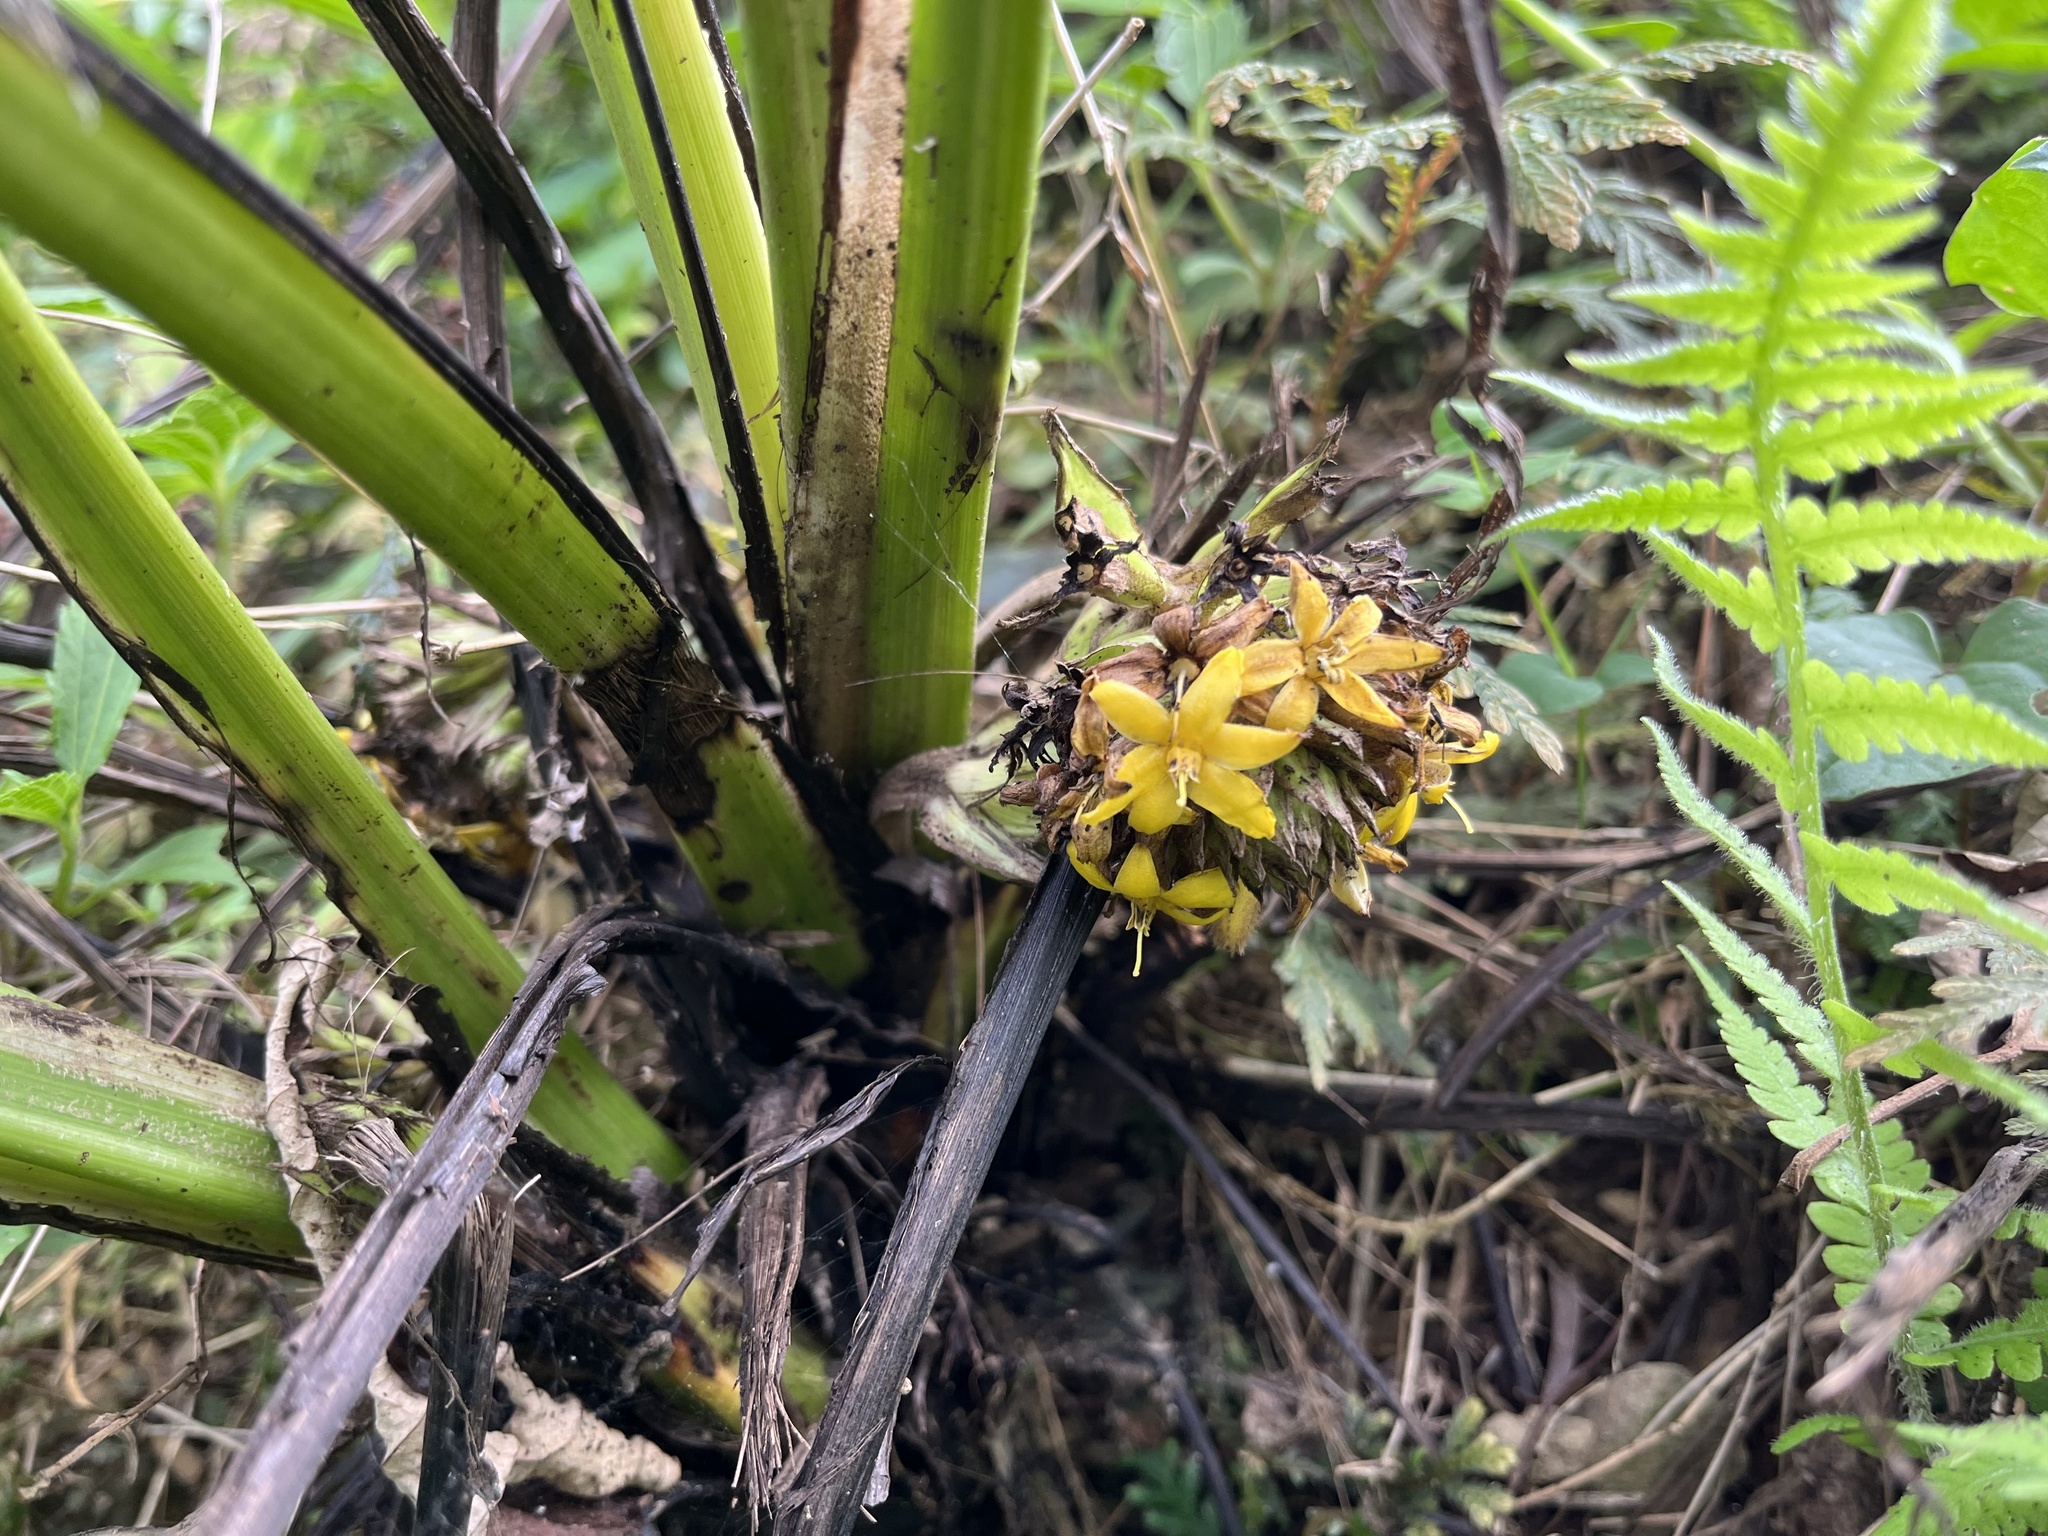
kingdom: Plantae
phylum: Tracheophyta
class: Liliopsida
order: Asparagales
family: Hypoxidaceae
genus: Curculigo
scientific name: Curculigo capitulata
